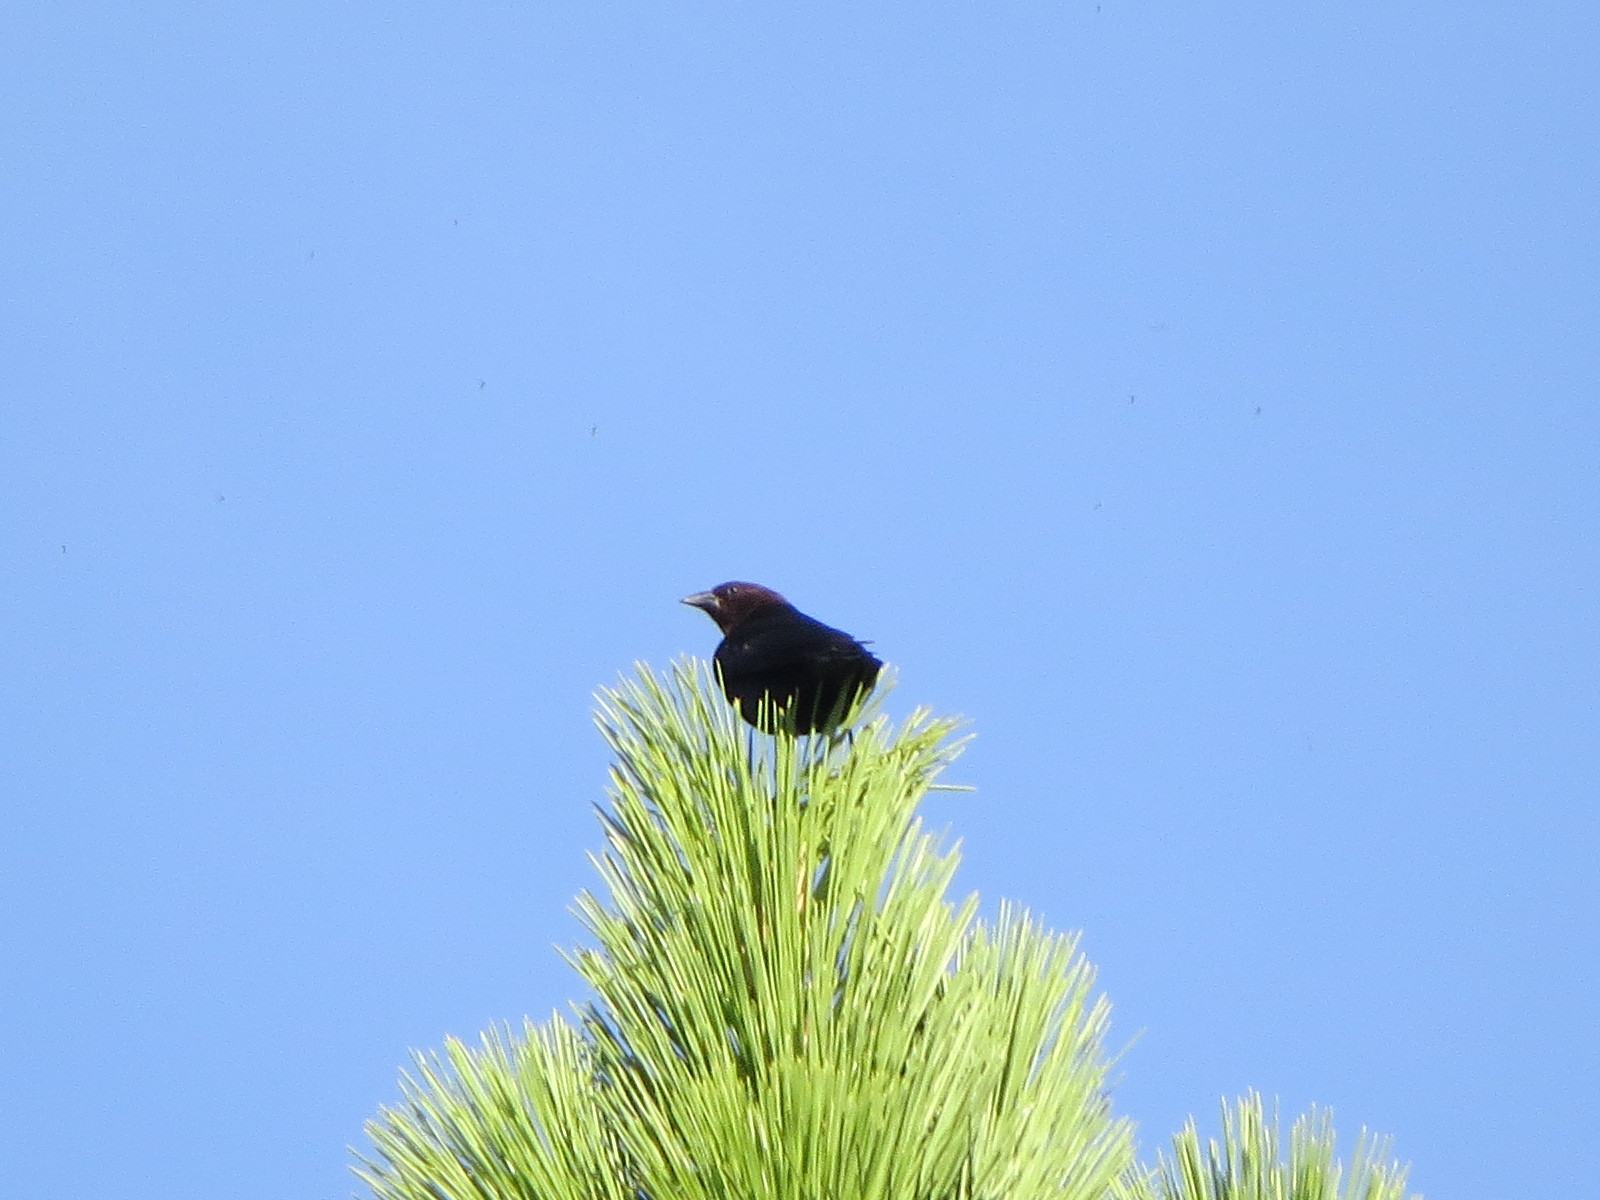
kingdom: Animalia
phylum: Chordata
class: Aves
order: Passeriformes
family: Icteridae
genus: Molothrus
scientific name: Molothrus ater
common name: Brown-headed cowbird
